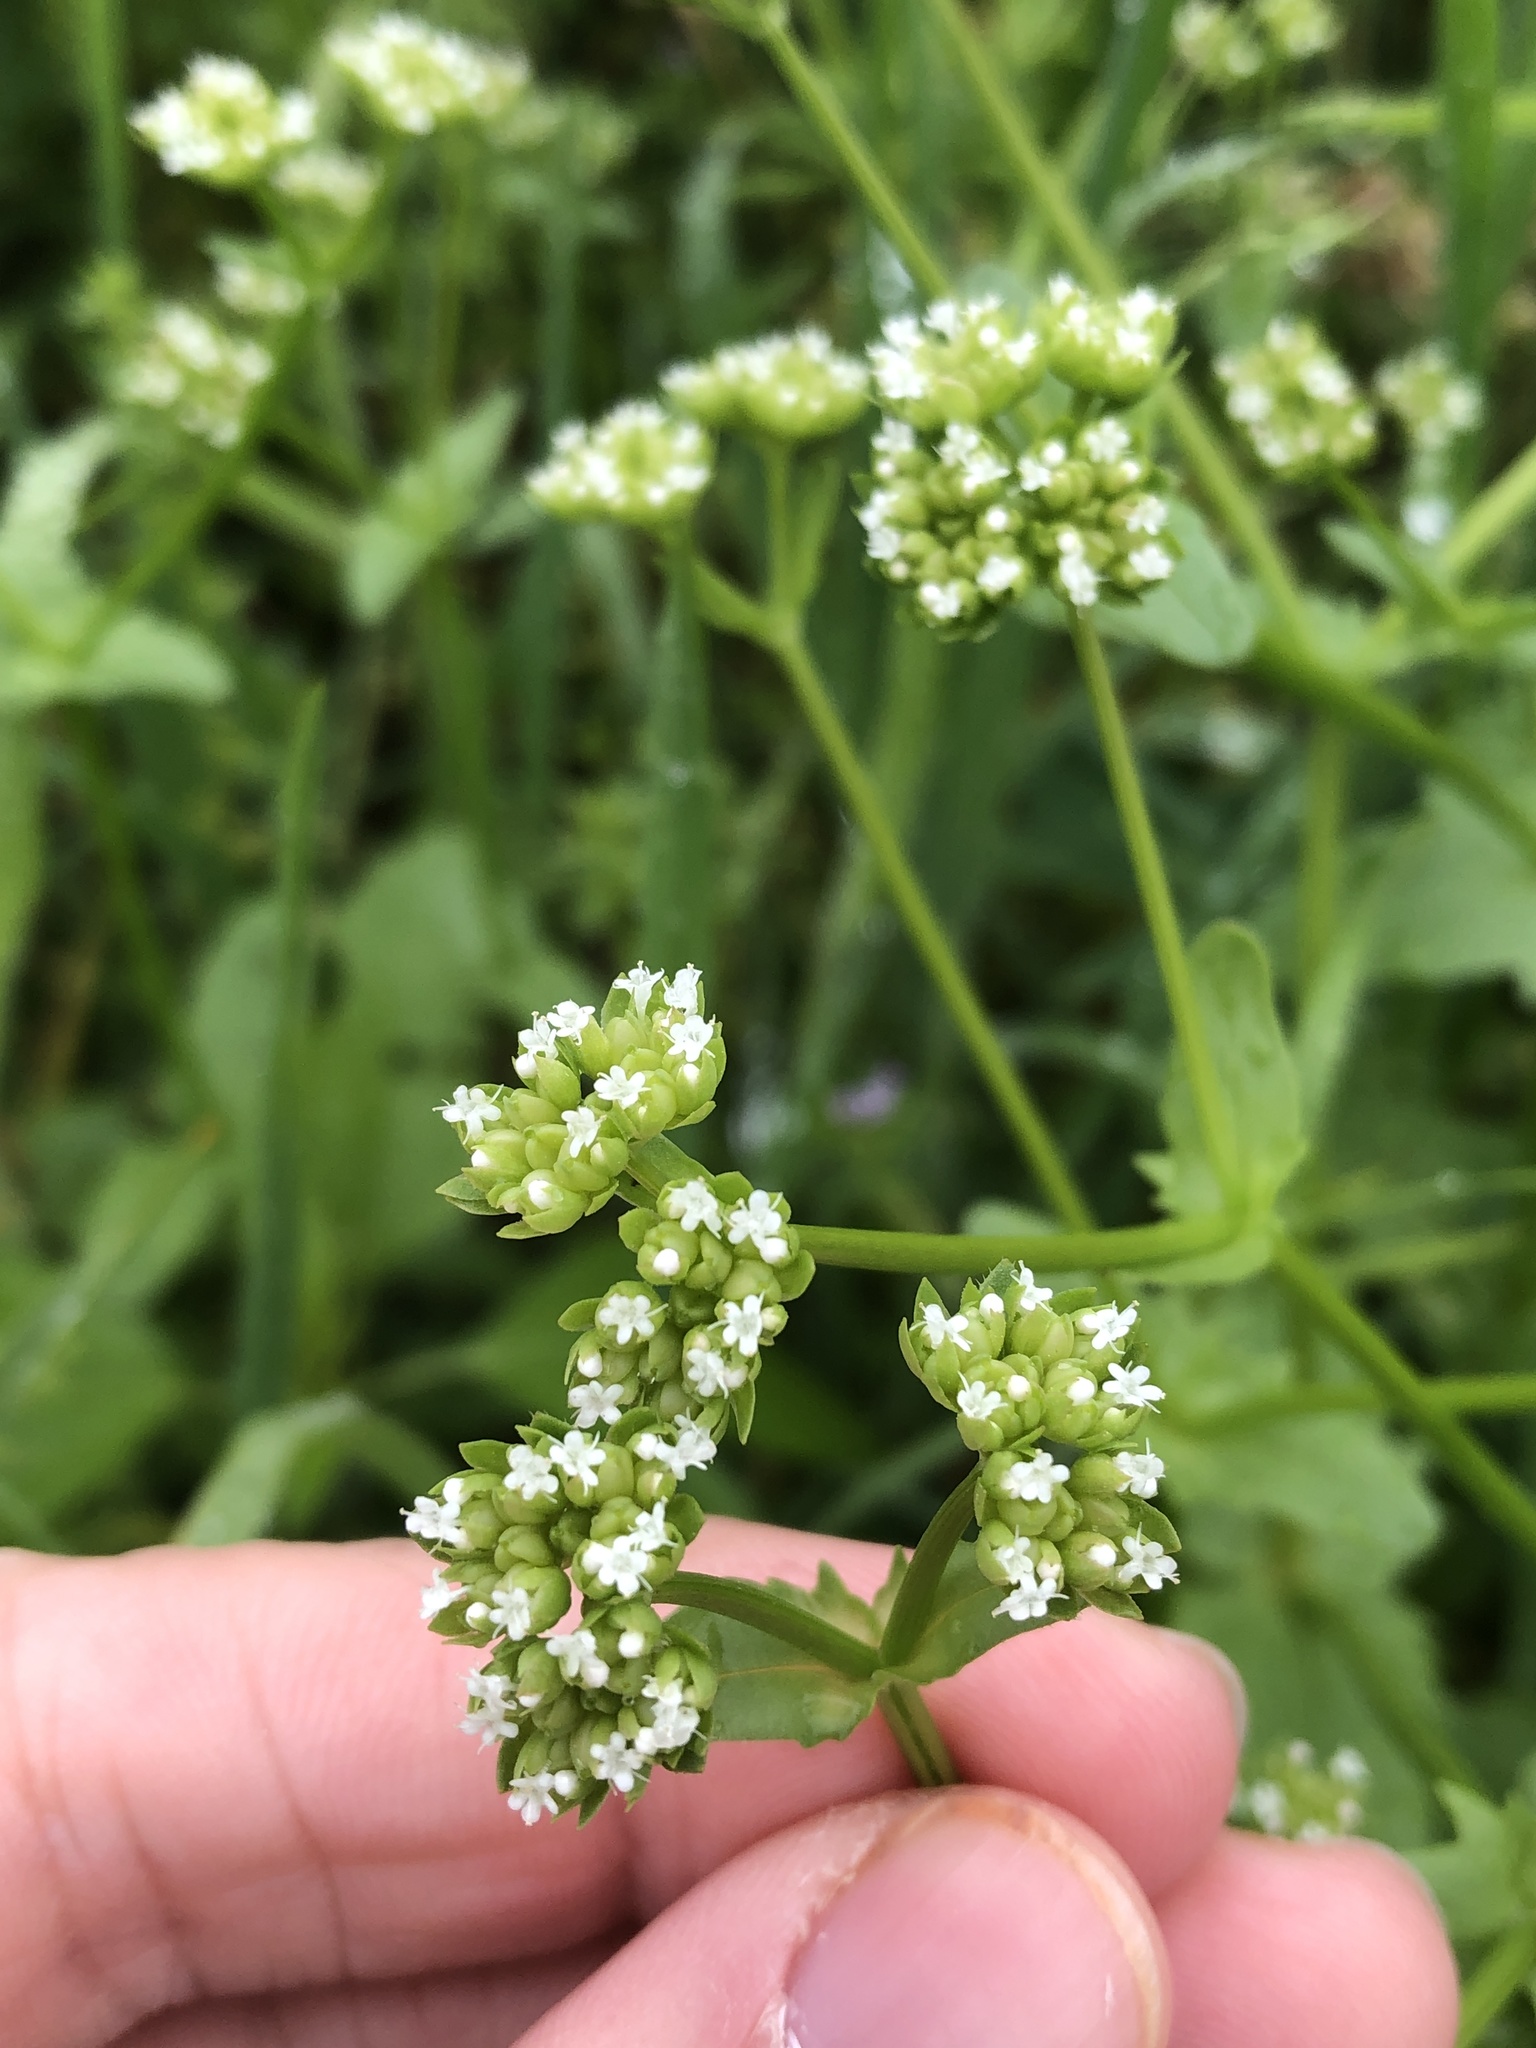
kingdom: Plantae
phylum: Tracheophyta
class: Magnoliopsida
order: Dipsacales
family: Caprifoliaceae
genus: Valerianella
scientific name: Valerianella radiata
